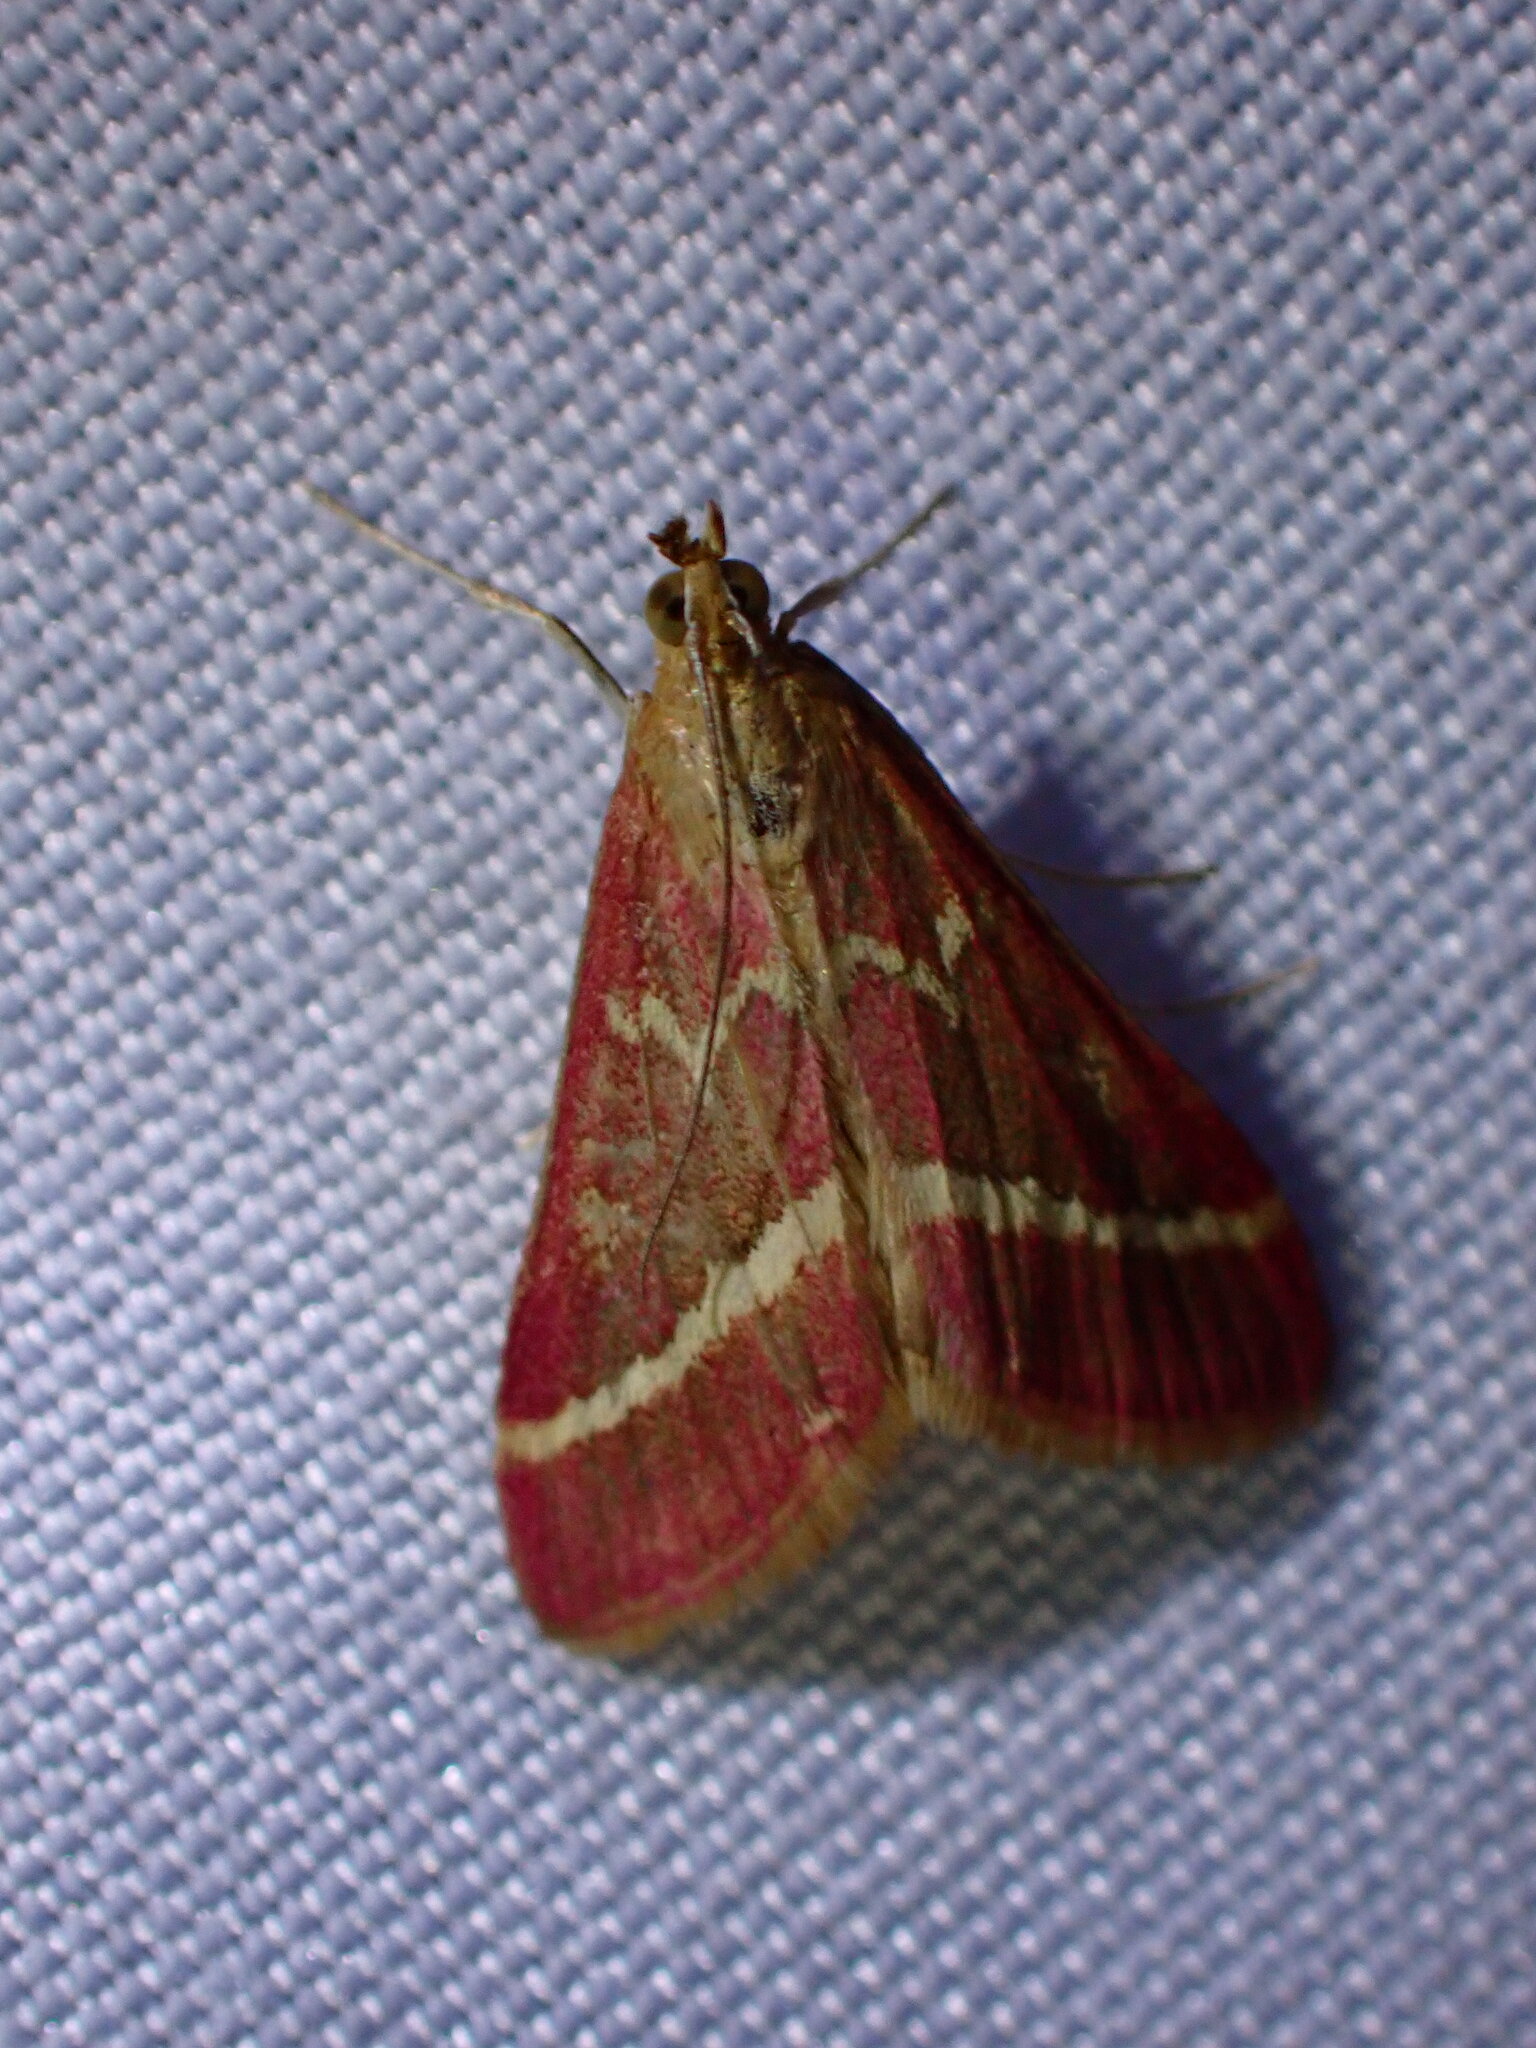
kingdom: Animalia
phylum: Arthropoda
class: Insecta
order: Lepidoptera
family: Crambidae
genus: Pyrausta
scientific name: Pyrausta volupialis
